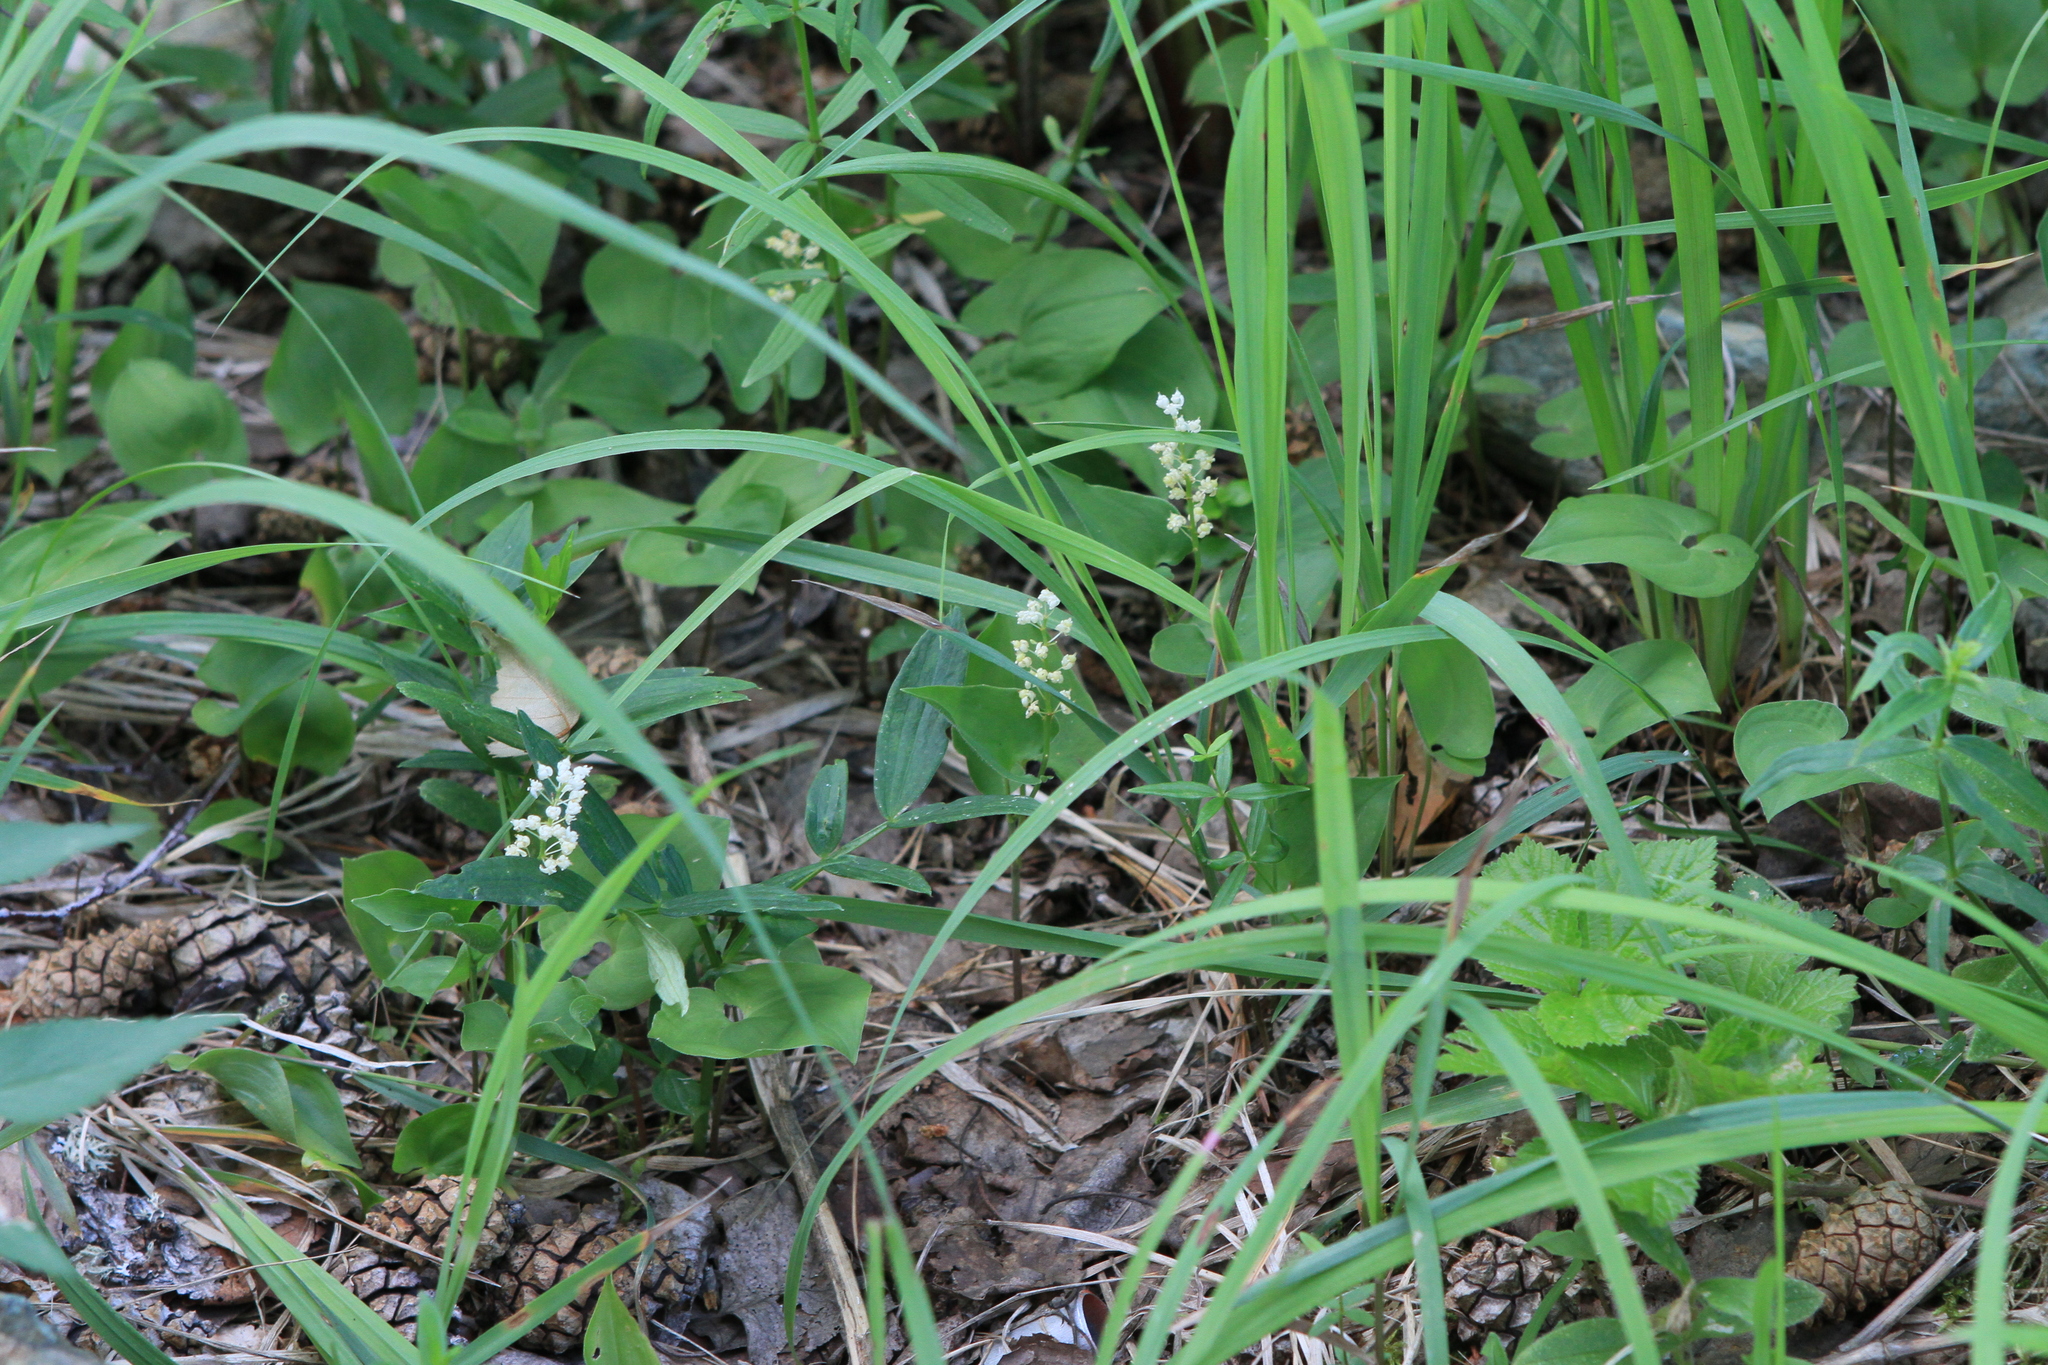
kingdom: Plantae
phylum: Tracheophyta
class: Liliopsida
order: Asparagales
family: Asparagaceae
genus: Maianthemum
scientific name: Maianthemum bifolium
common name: May lily
